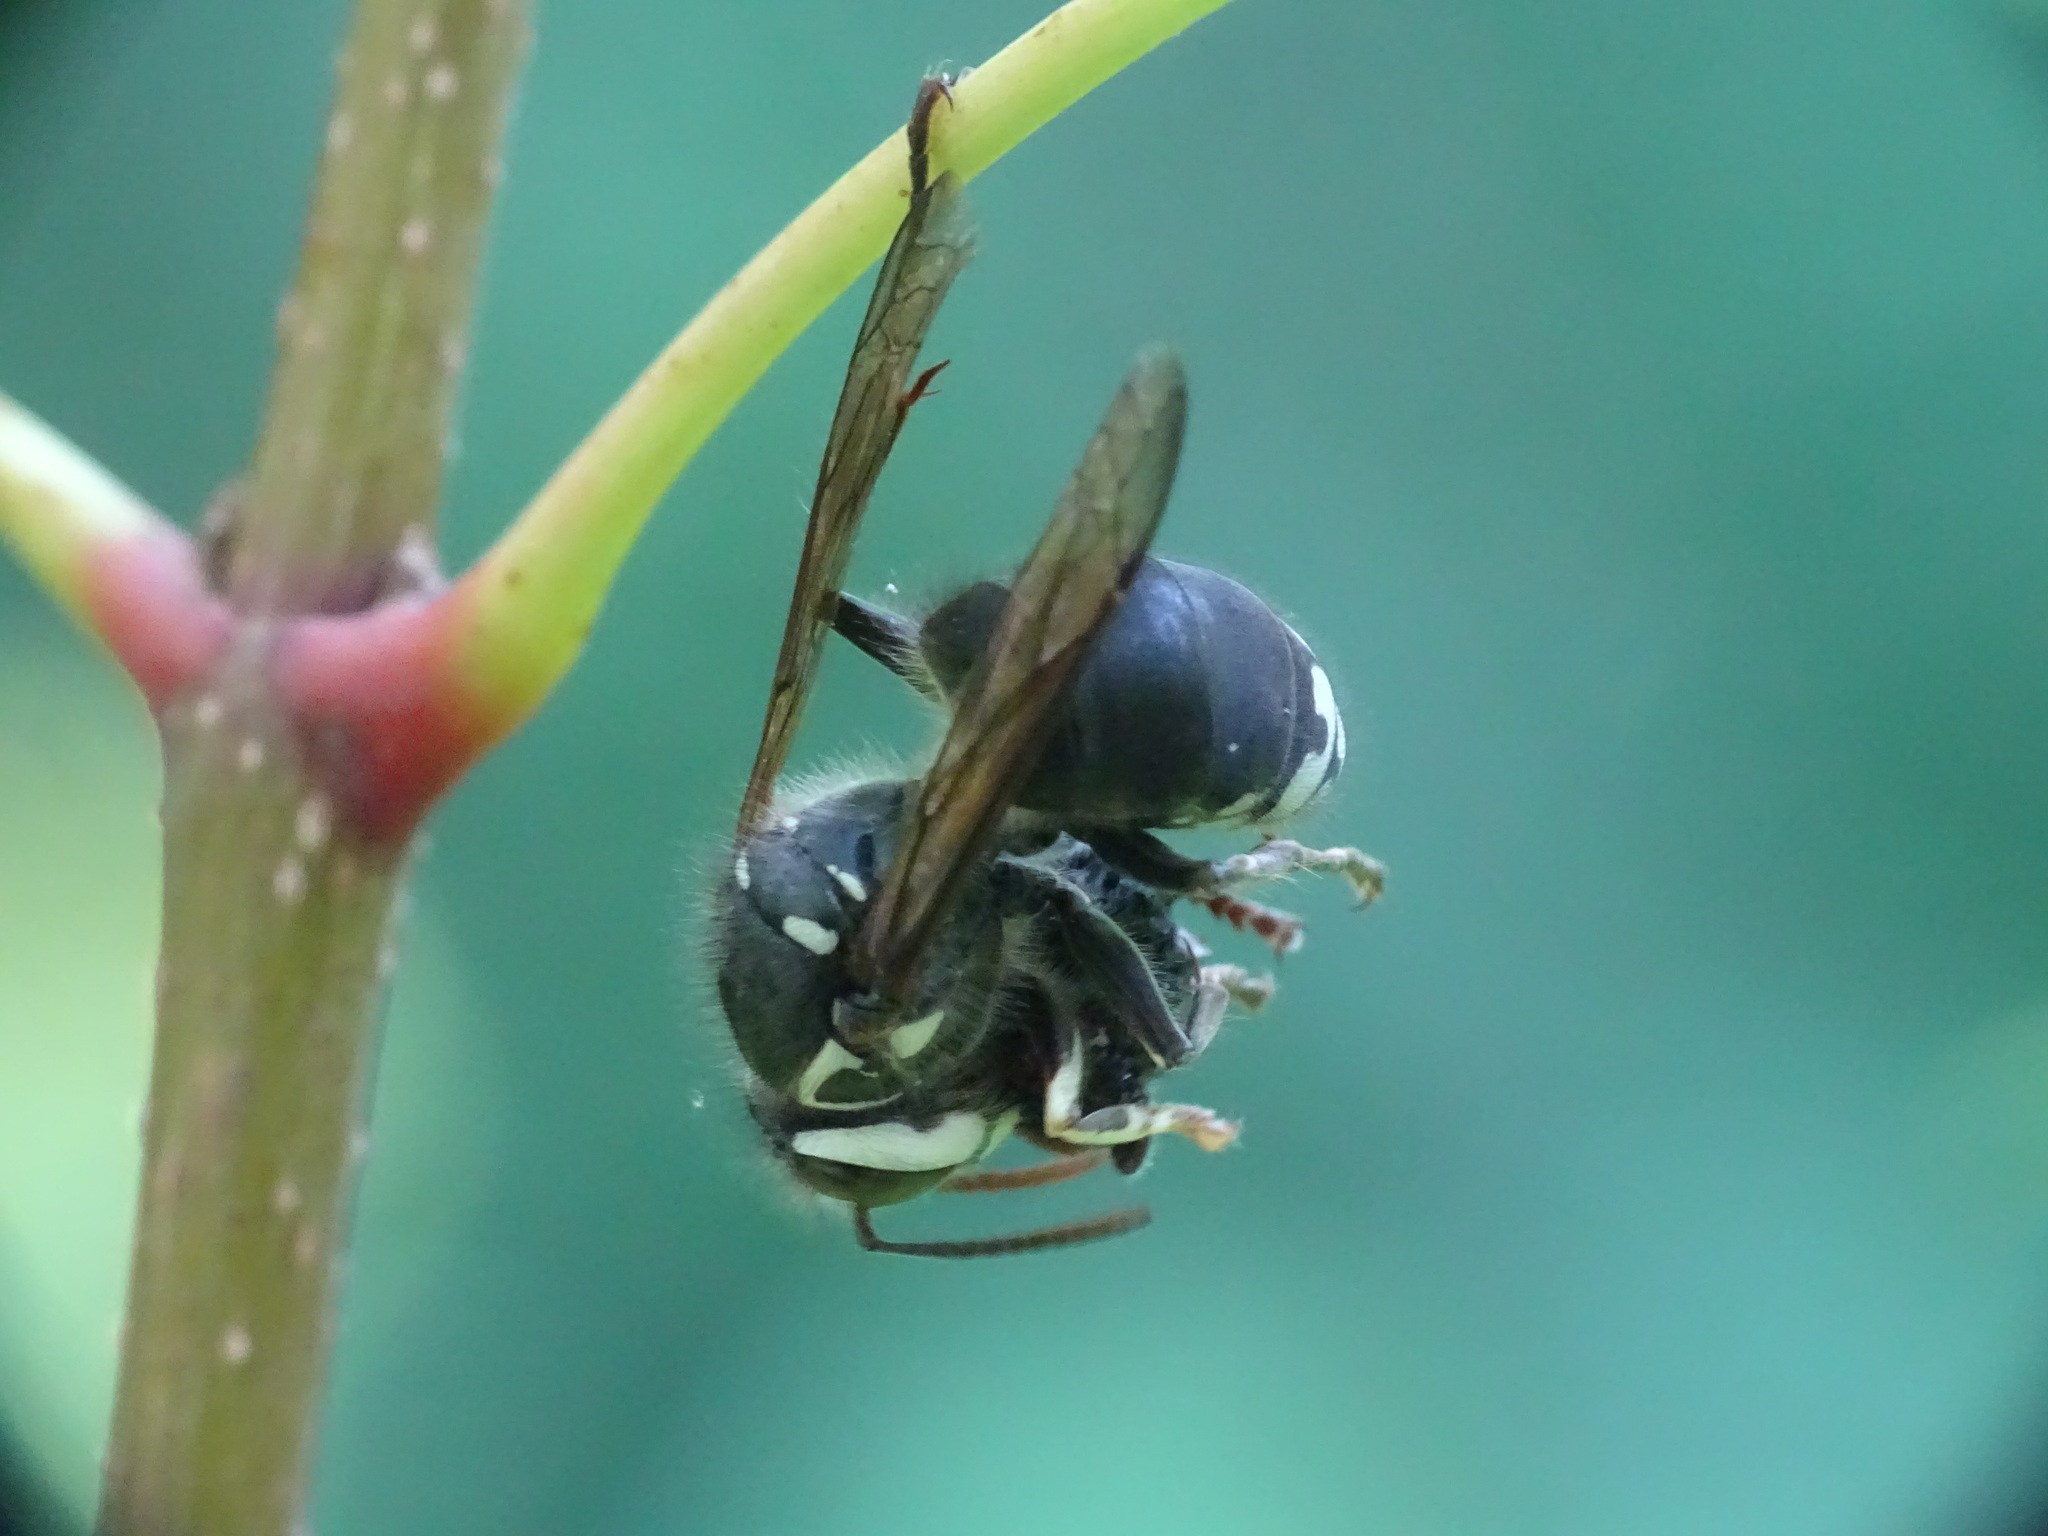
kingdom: Animalia
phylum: Arthropoda
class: Insecta
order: Hymenoptera
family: Vespidae
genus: Dolichovespula
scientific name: Dolichovespula maculata
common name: Bald-faced hornet
